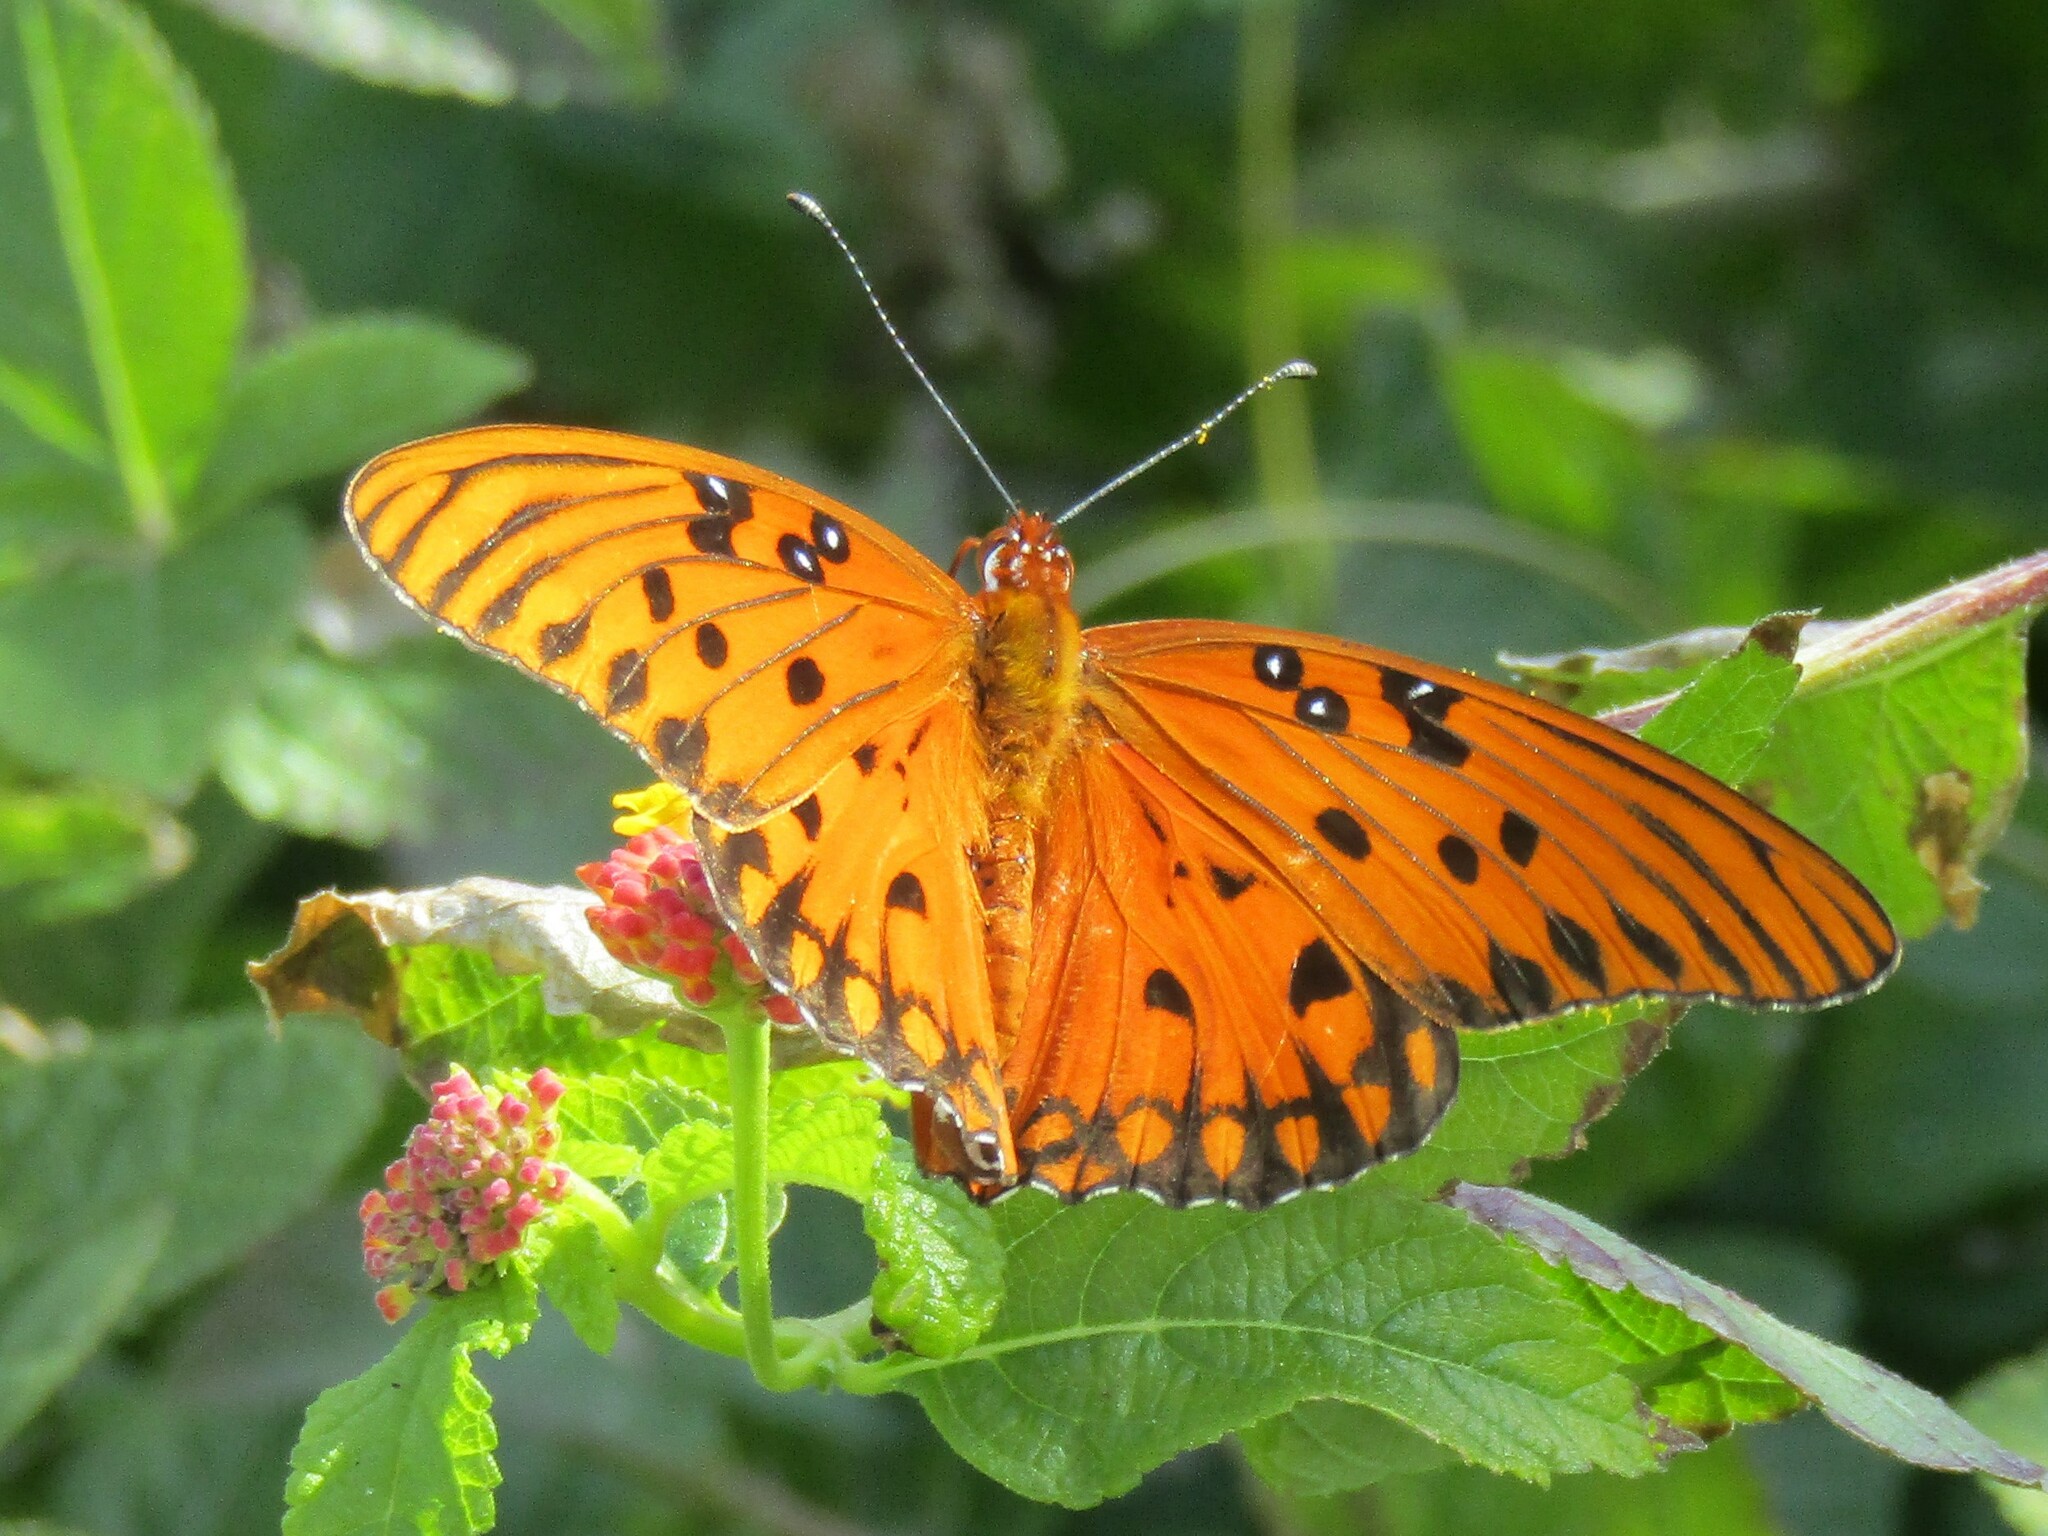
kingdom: Animalia
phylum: Arthropoda
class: Insecta
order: Lepidoptera
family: Nymphalidae
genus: Dione
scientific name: Dione vanillae
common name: Gulf fritillary
